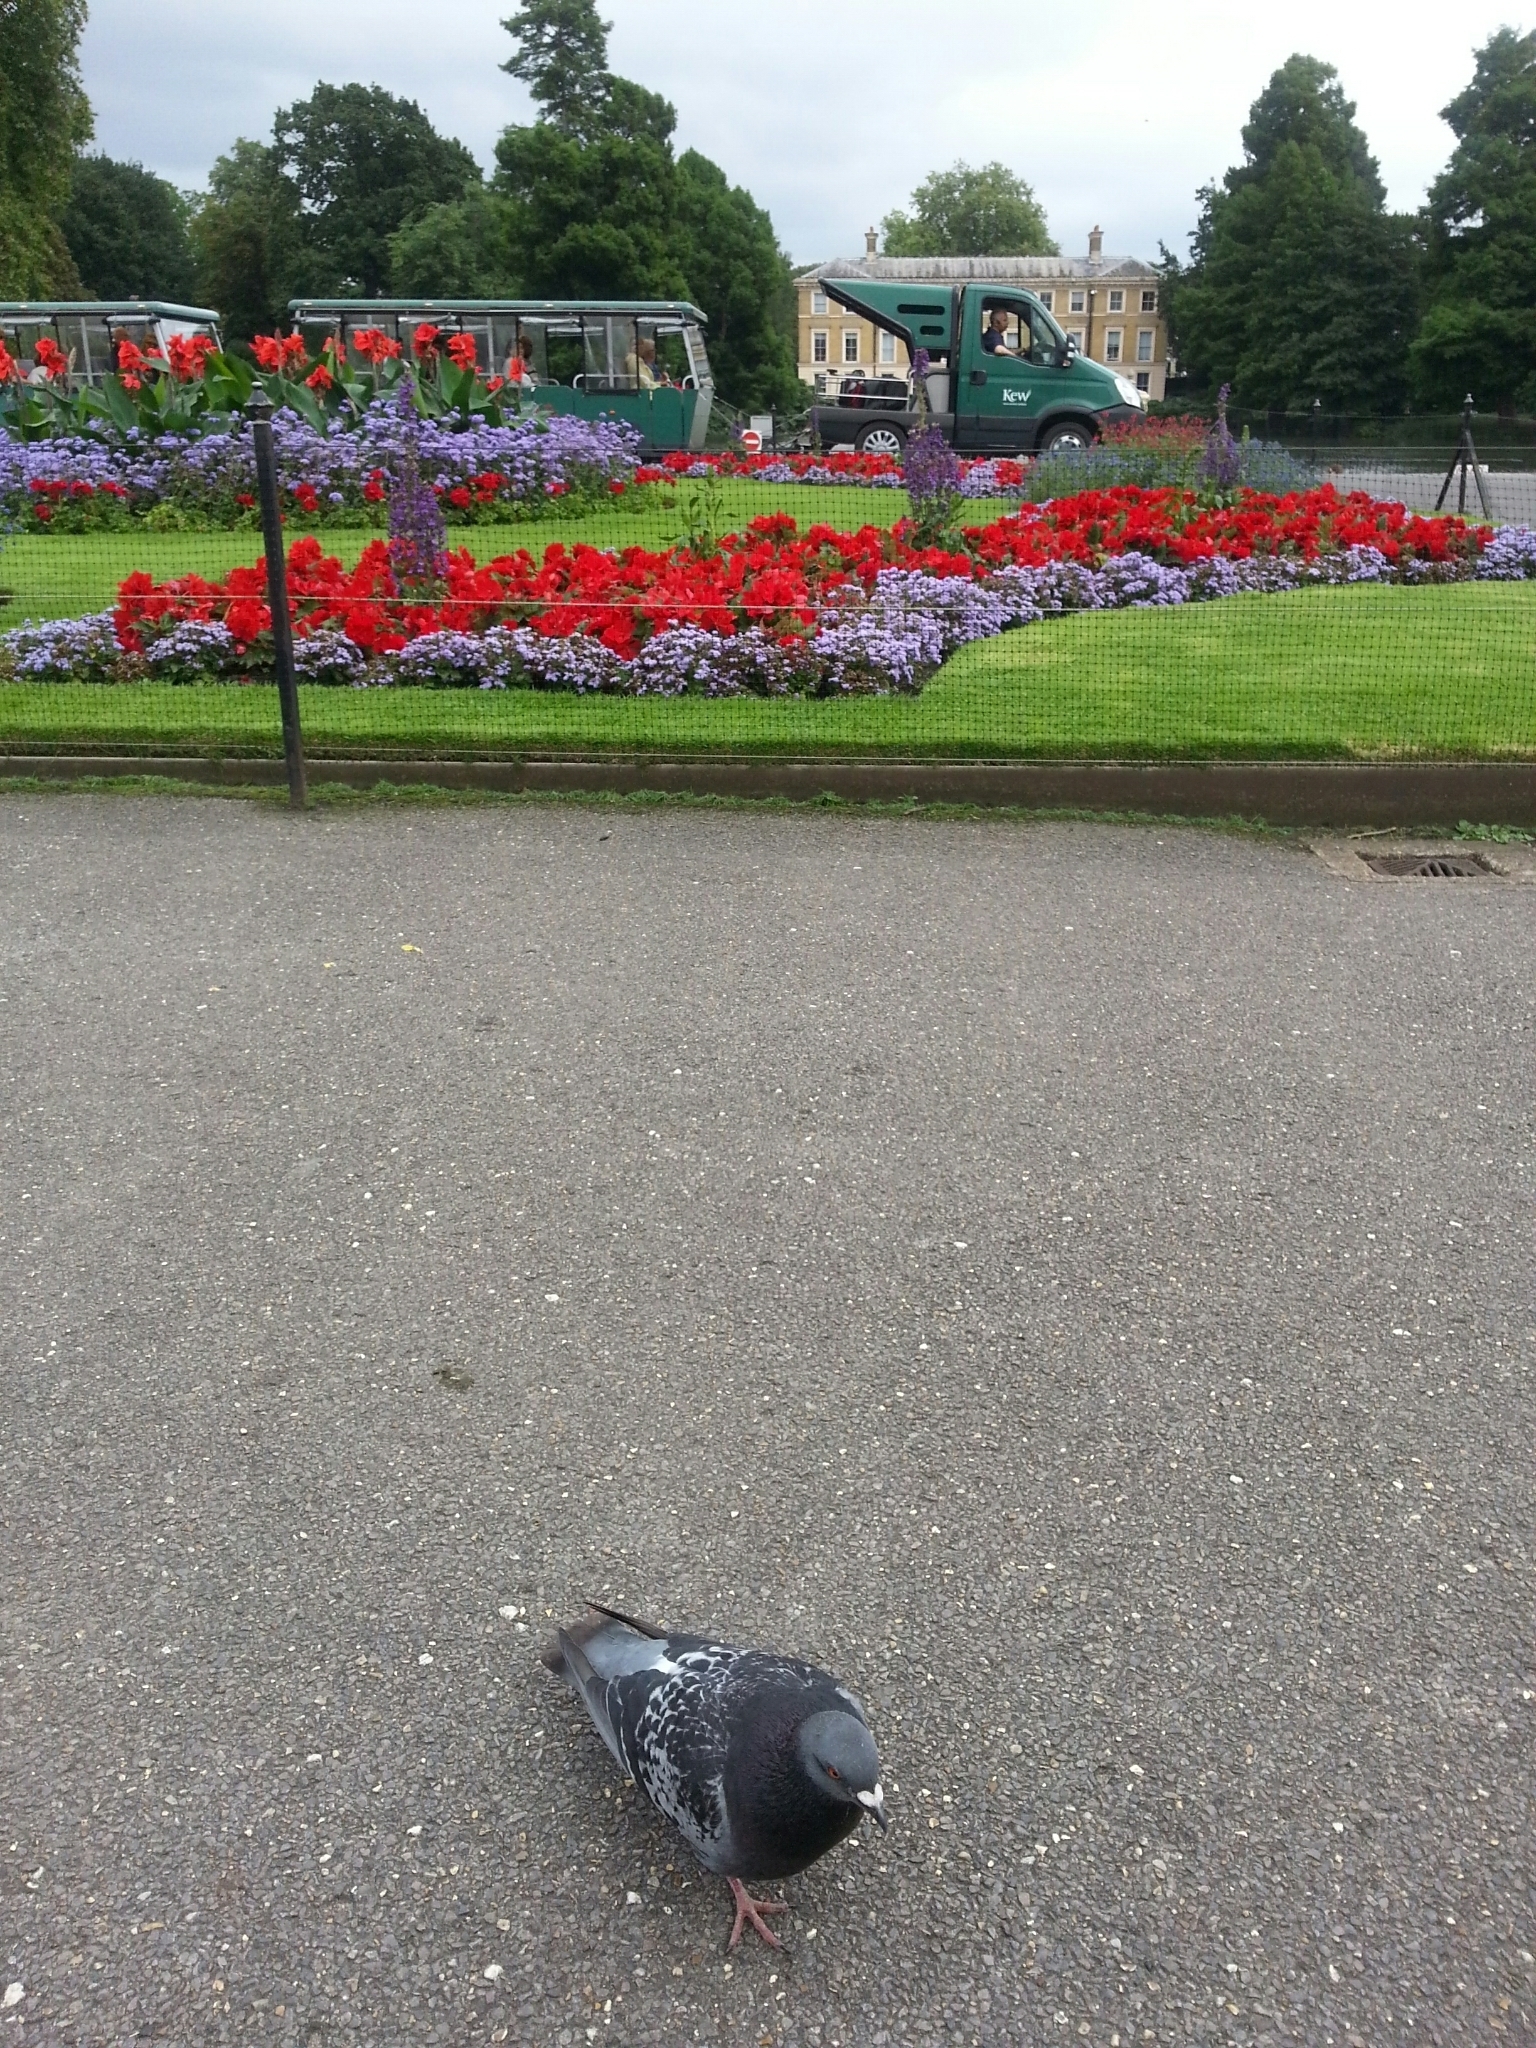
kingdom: Animalia
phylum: Chordata
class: Aves
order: Columbiformes
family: Columbidae
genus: Columba
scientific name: Columba livia
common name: Rock pigeon
